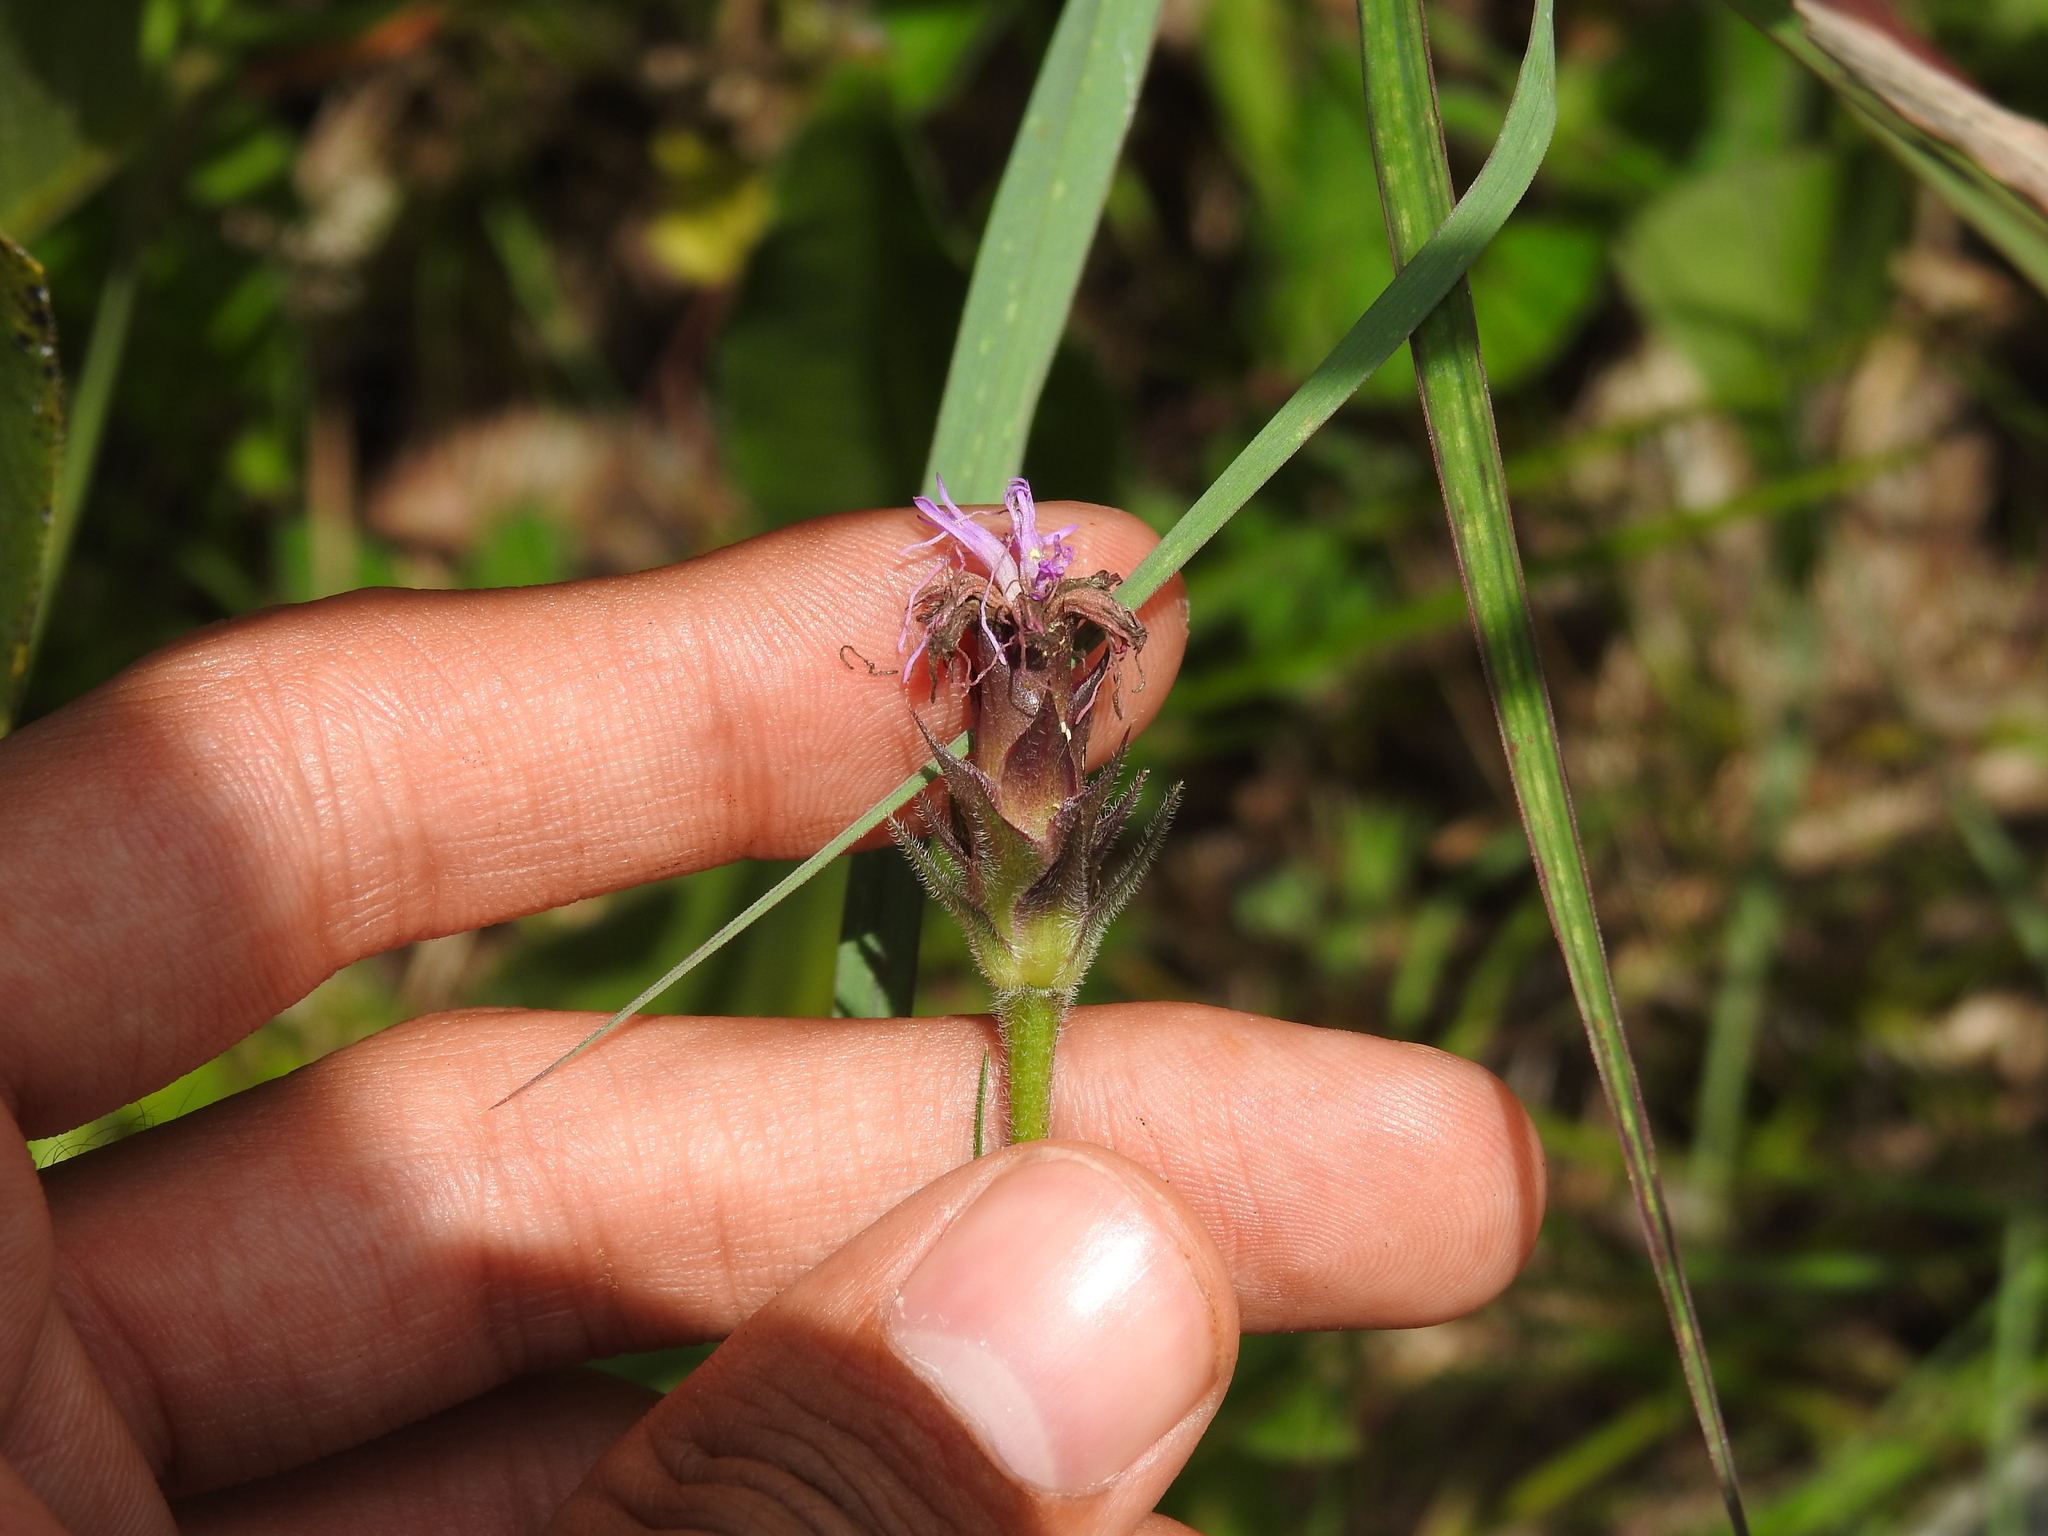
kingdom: Plantae
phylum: Tracheophyta
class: Magnoliopsida
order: Asterales
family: Asteraceae
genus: Liatris
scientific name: Liatris squarrosa
